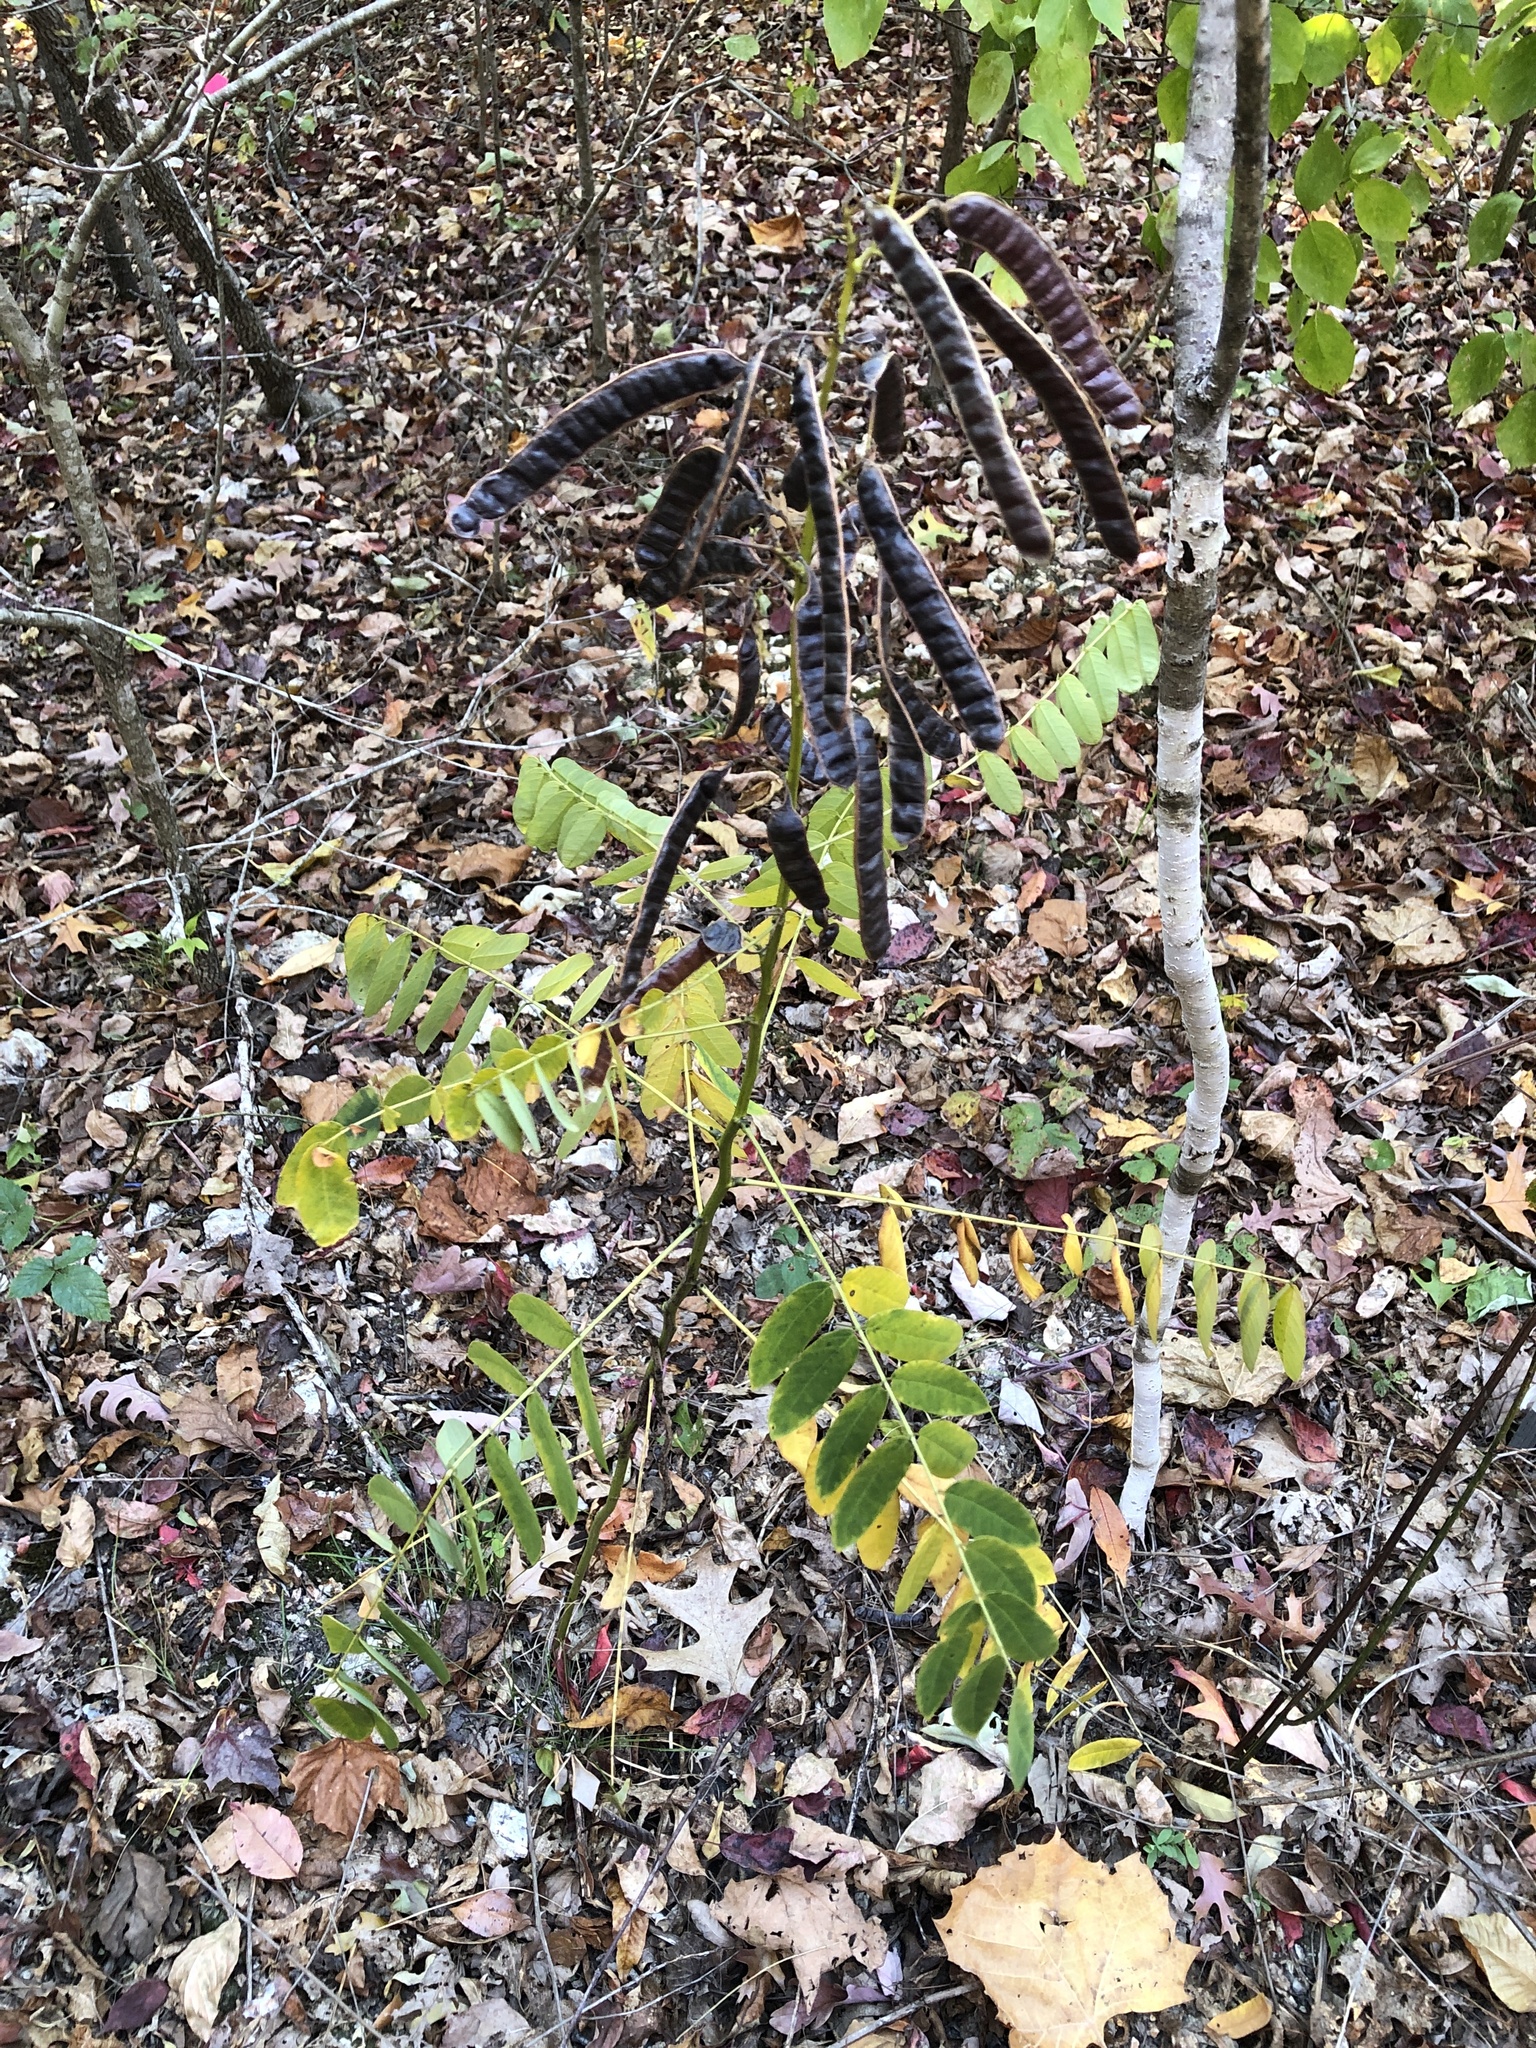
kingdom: Plantae
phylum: Tracheophyta
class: Magnoliopsida
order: Fabales
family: Fabaceae
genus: Senna
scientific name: Senna marilandica
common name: American senna
